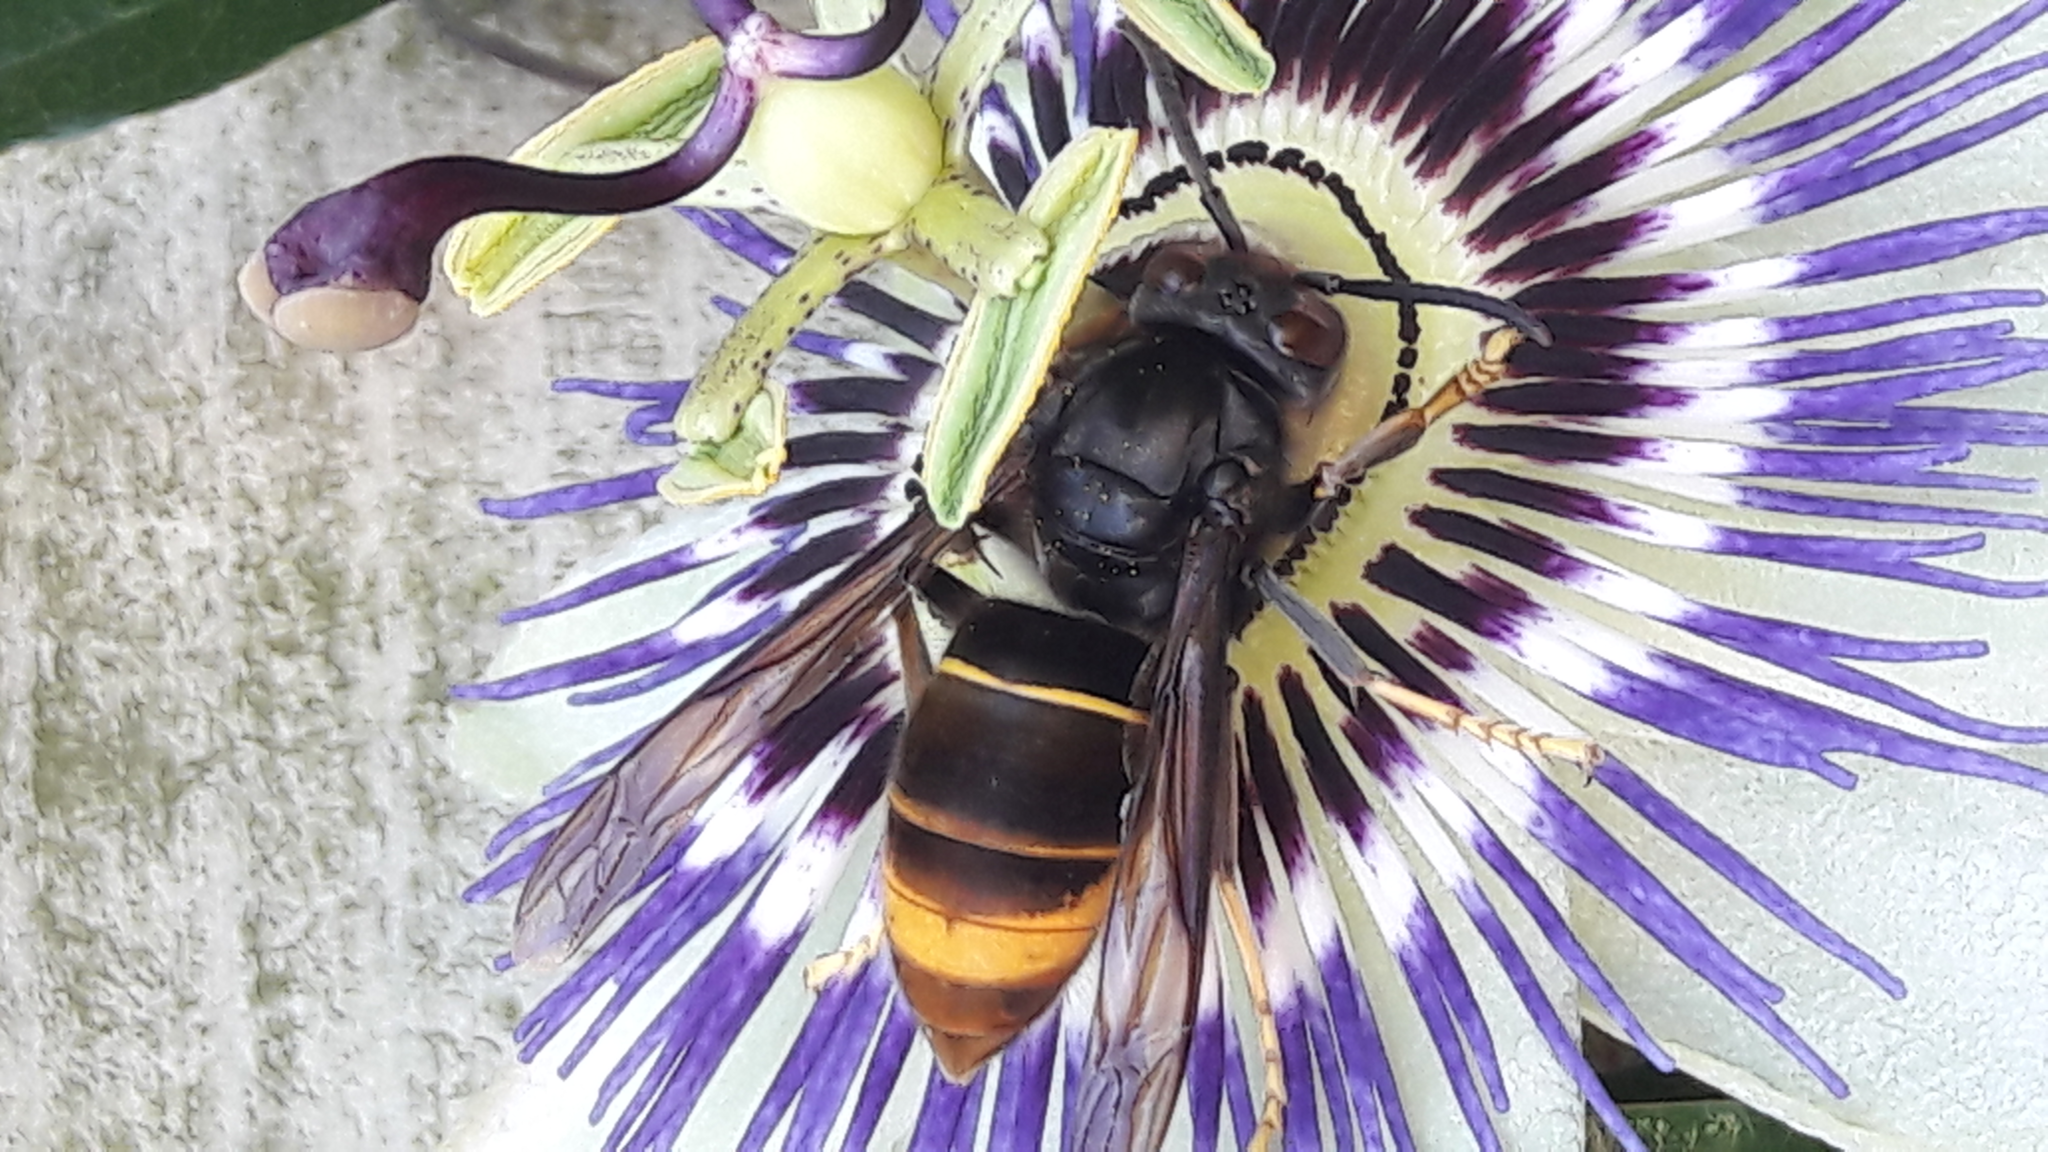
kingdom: Animalia
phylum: Arthropoda
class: Insecta
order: Hymenoptera
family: Vespidae
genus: Vespa
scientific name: Vespa velutina
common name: Asian hornet
